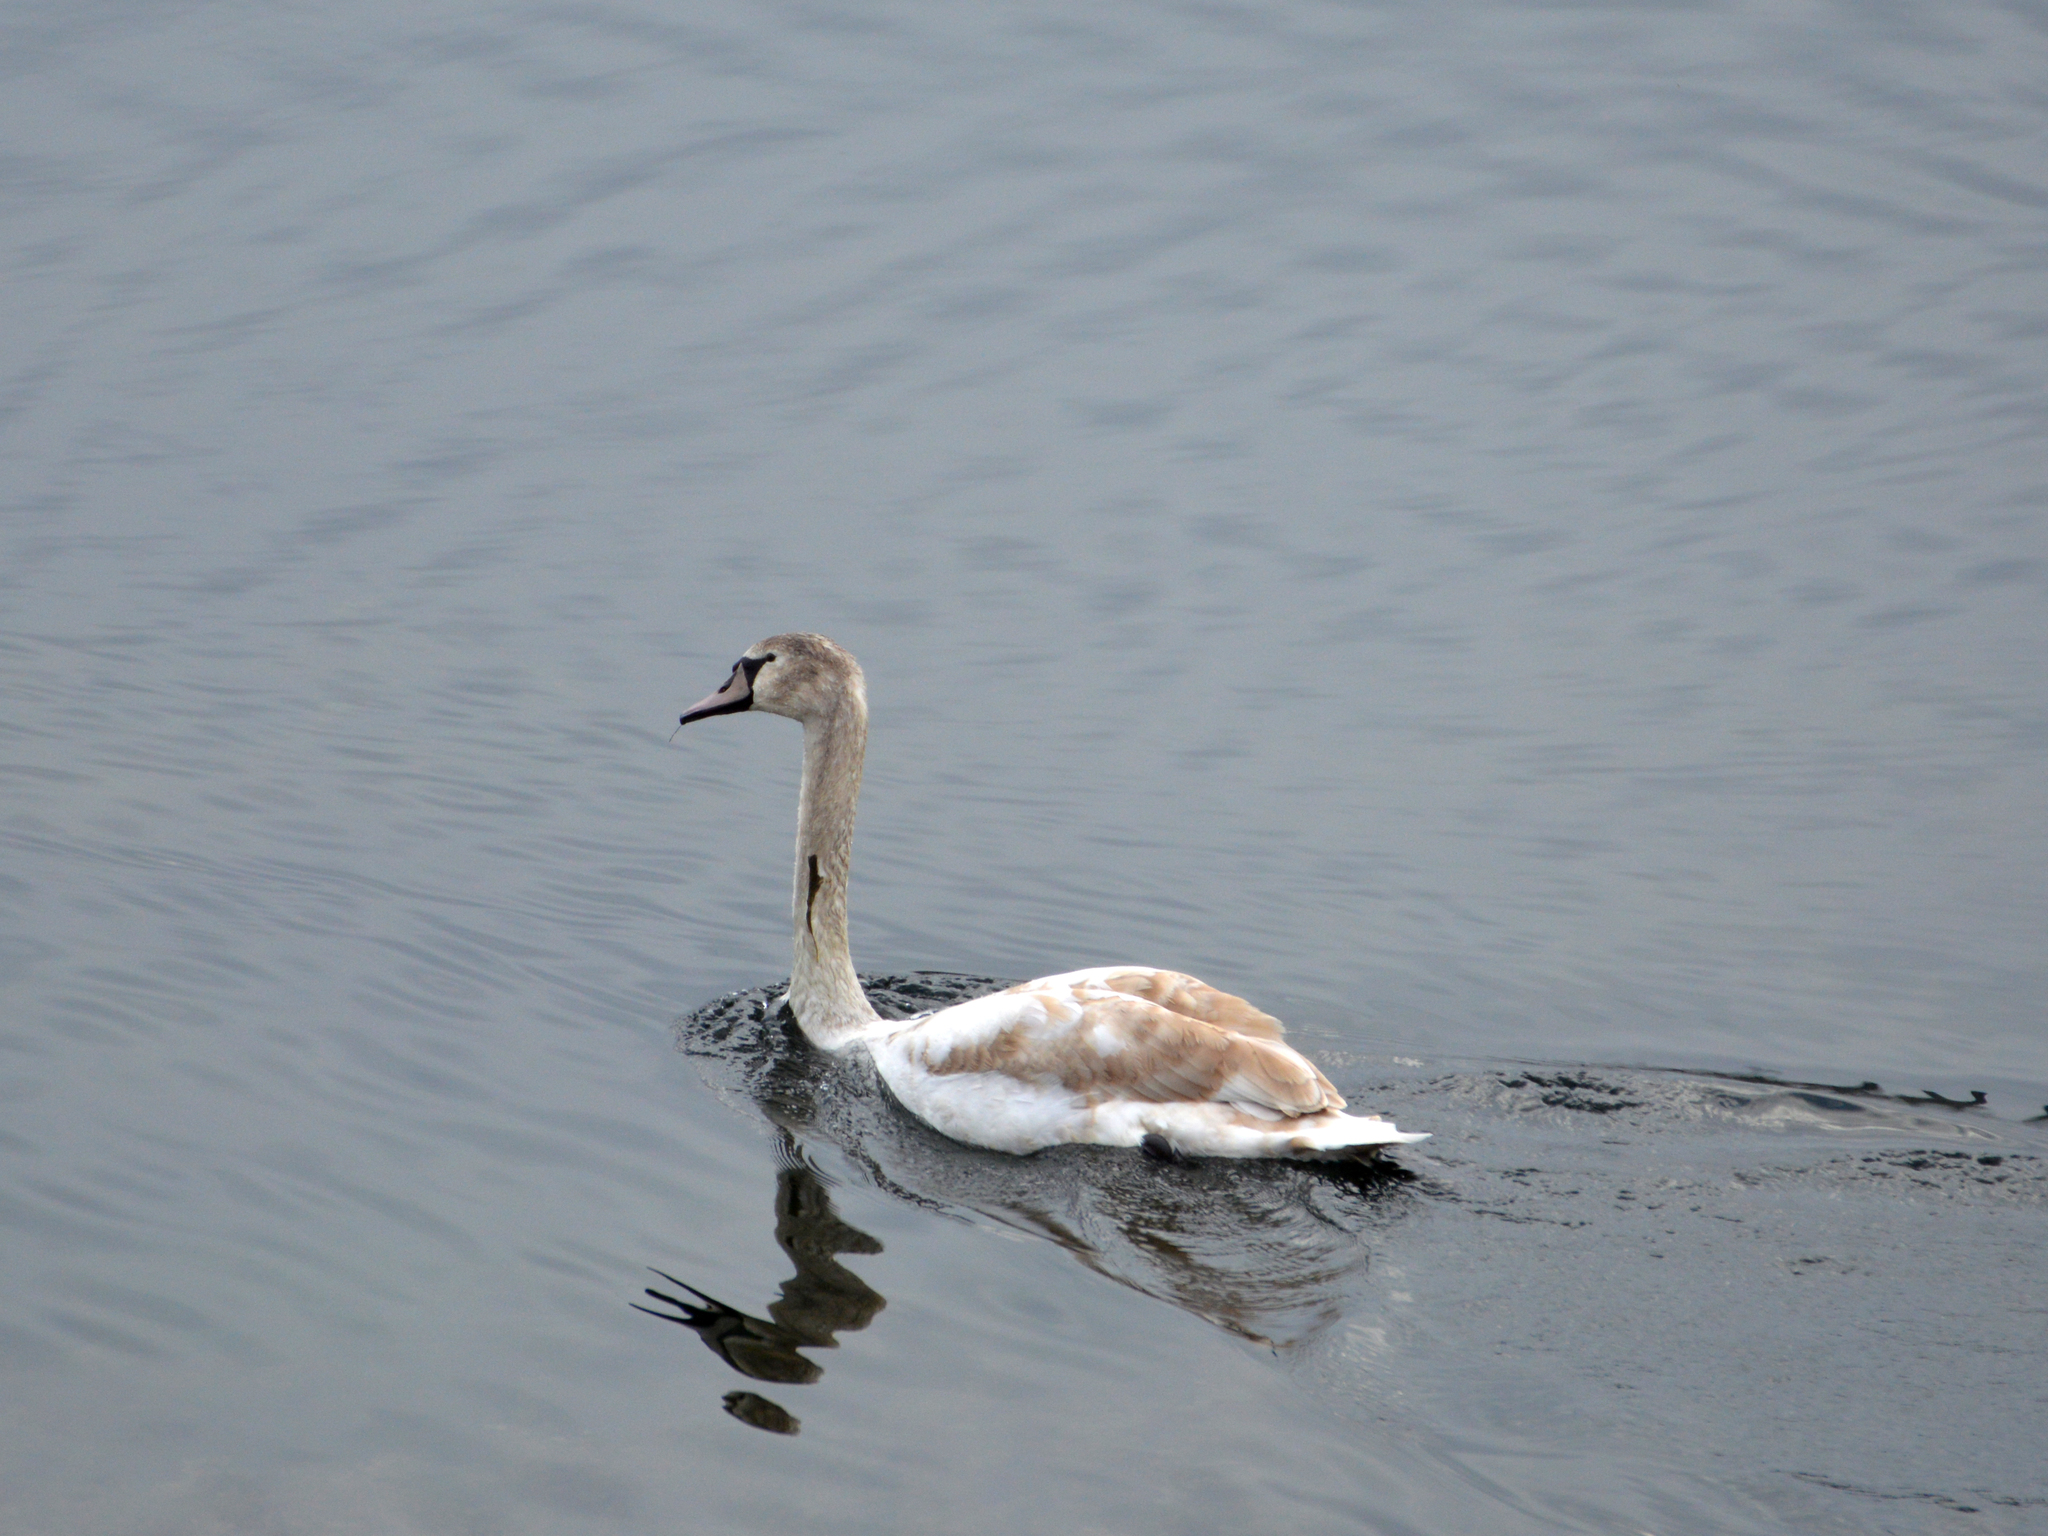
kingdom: Animalia
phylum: Chordata
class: Aves
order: Anseriformes
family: Anatidae
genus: Cygnus
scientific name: Cygnus olor
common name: Mute swan
